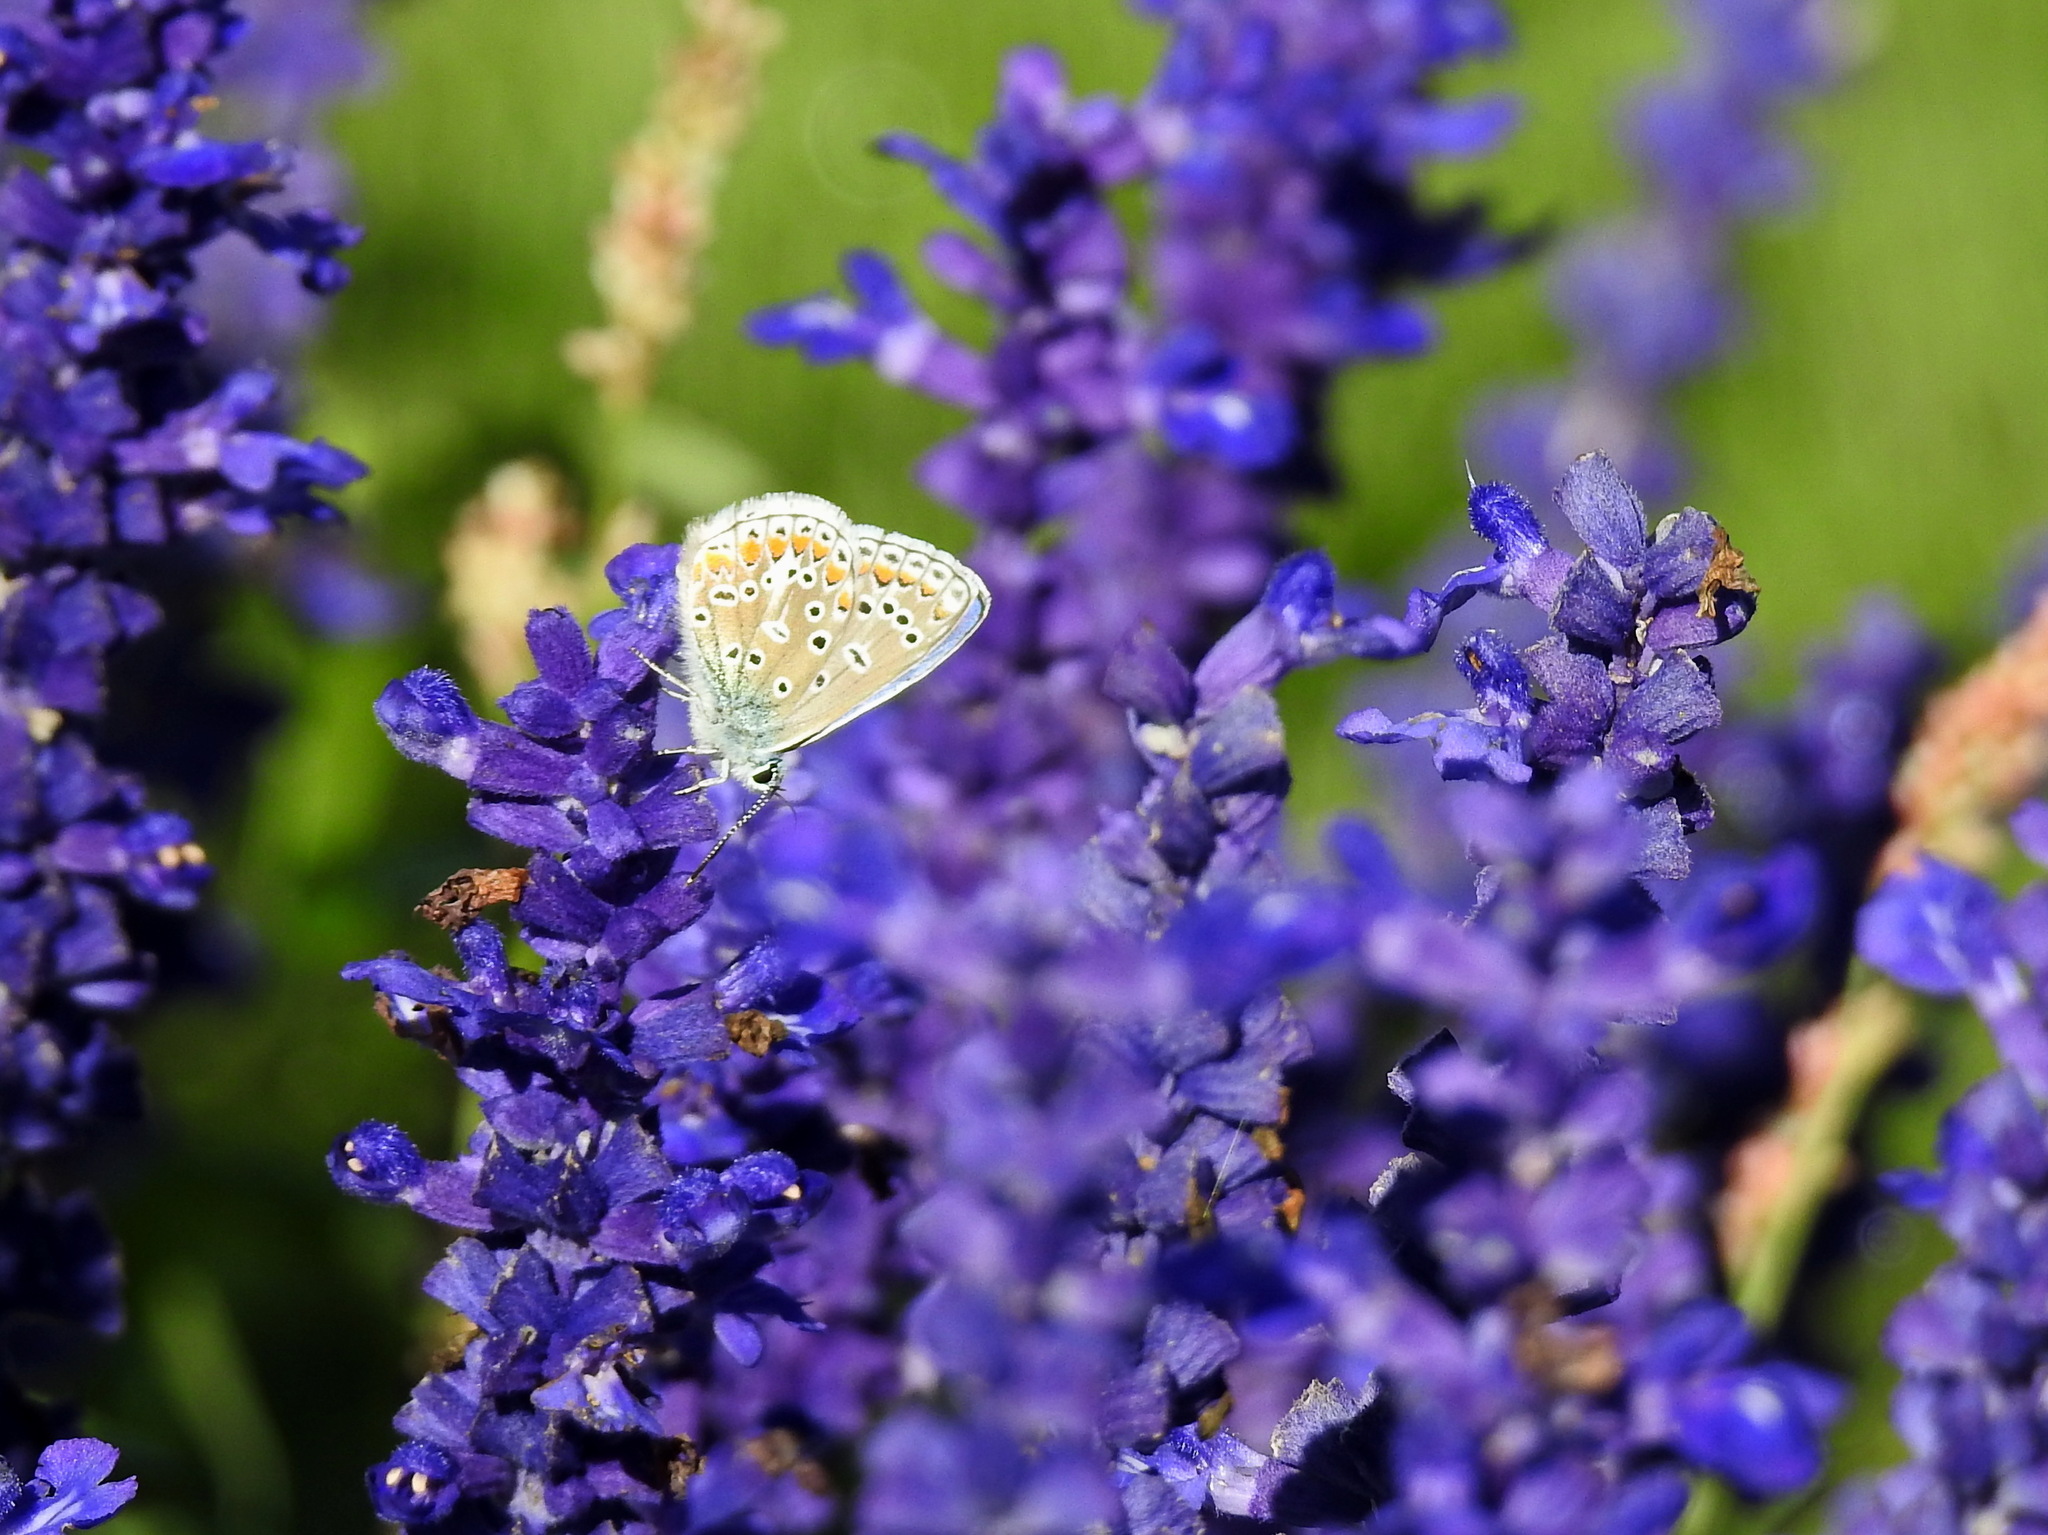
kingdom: Animalia
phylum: Arthropoda
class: Insecta
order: Lepidoptera
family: Lycaenidae
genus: Polyommatus
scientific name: Polyommatus icarus
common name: Common blue
